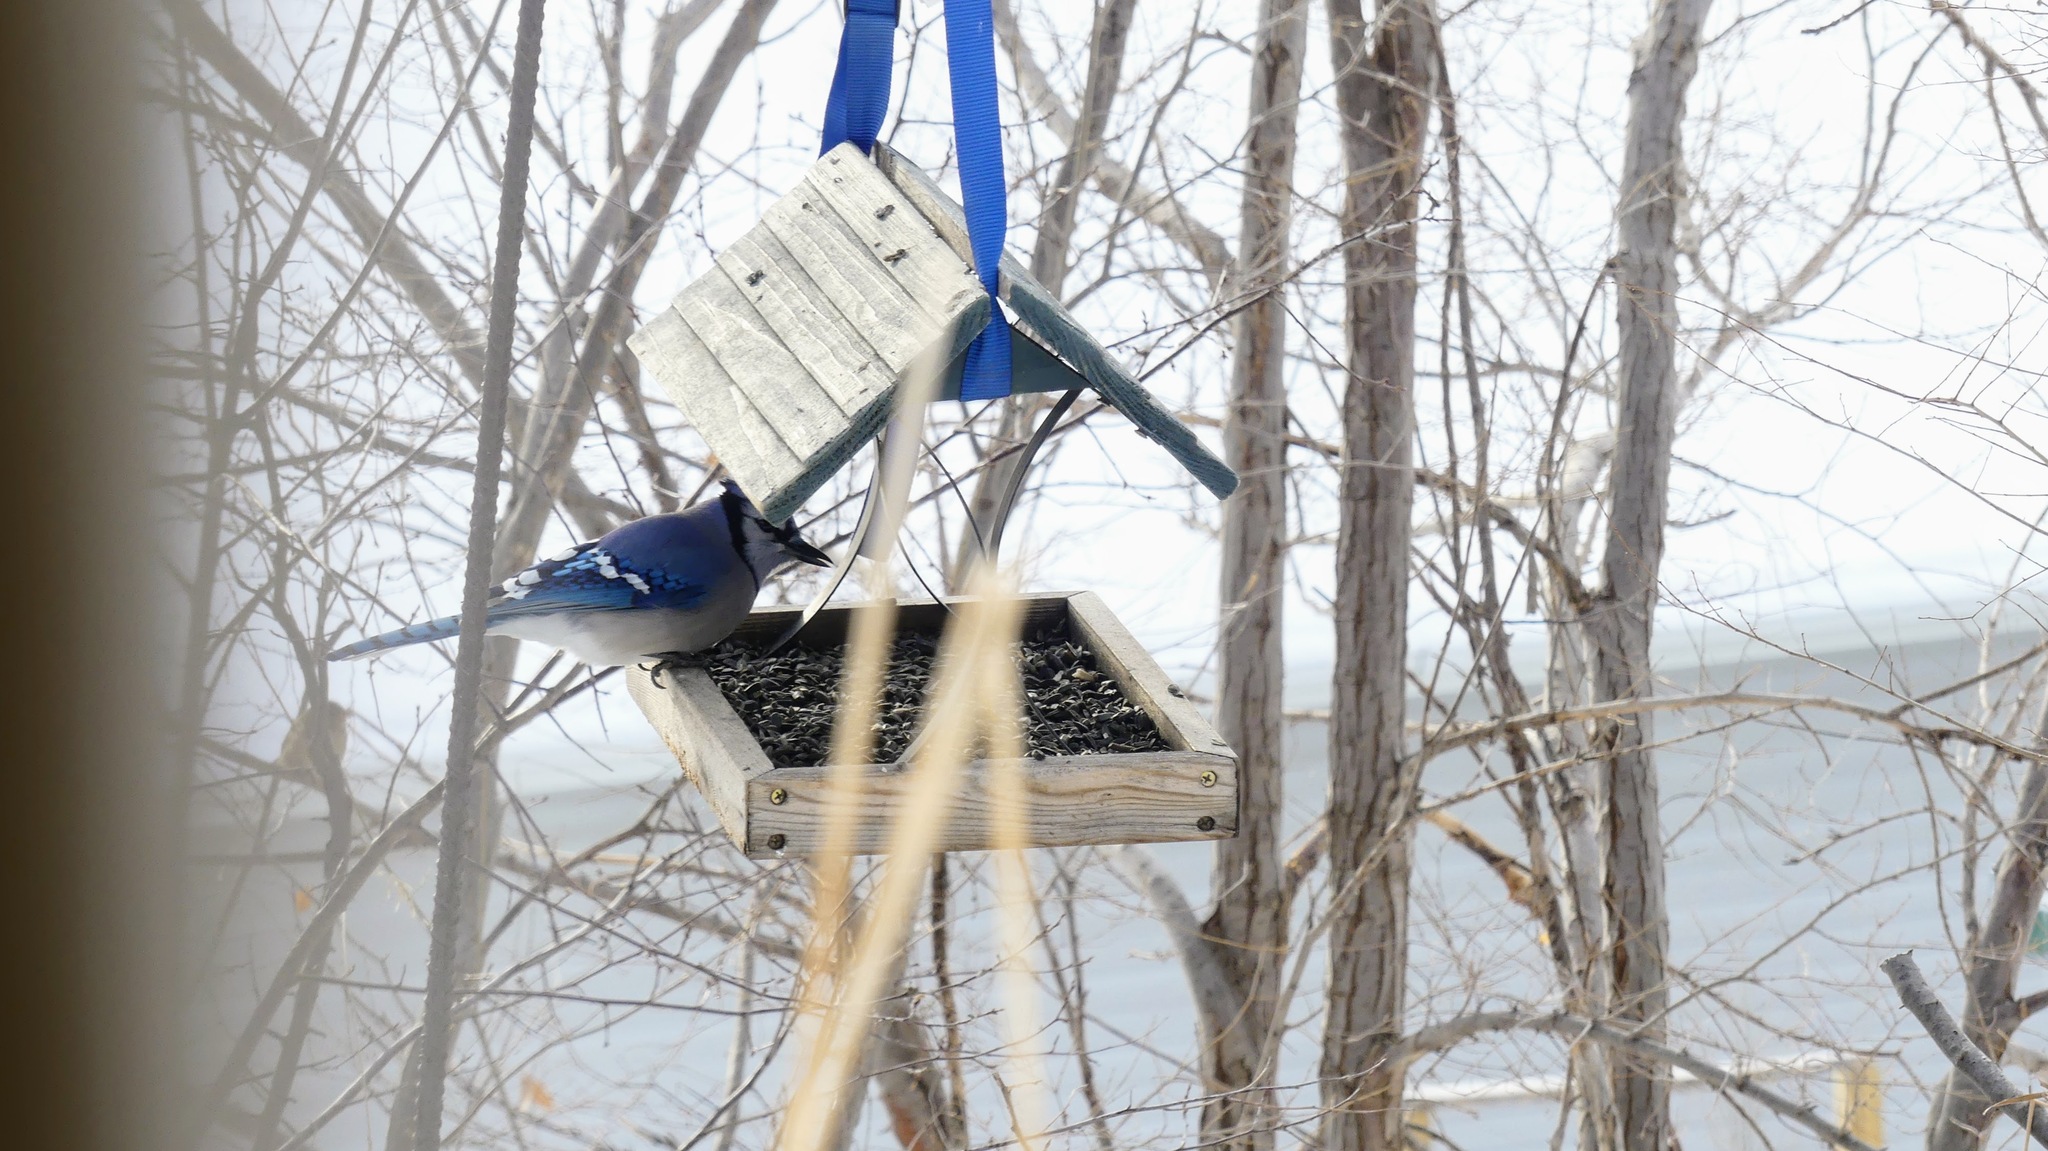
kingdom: Animalia
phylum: Chordata
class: Aves
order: Passeriformes
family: Corvidae
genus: Cyanocitta
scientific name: Cyanocitta cristata
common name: Blue jay
